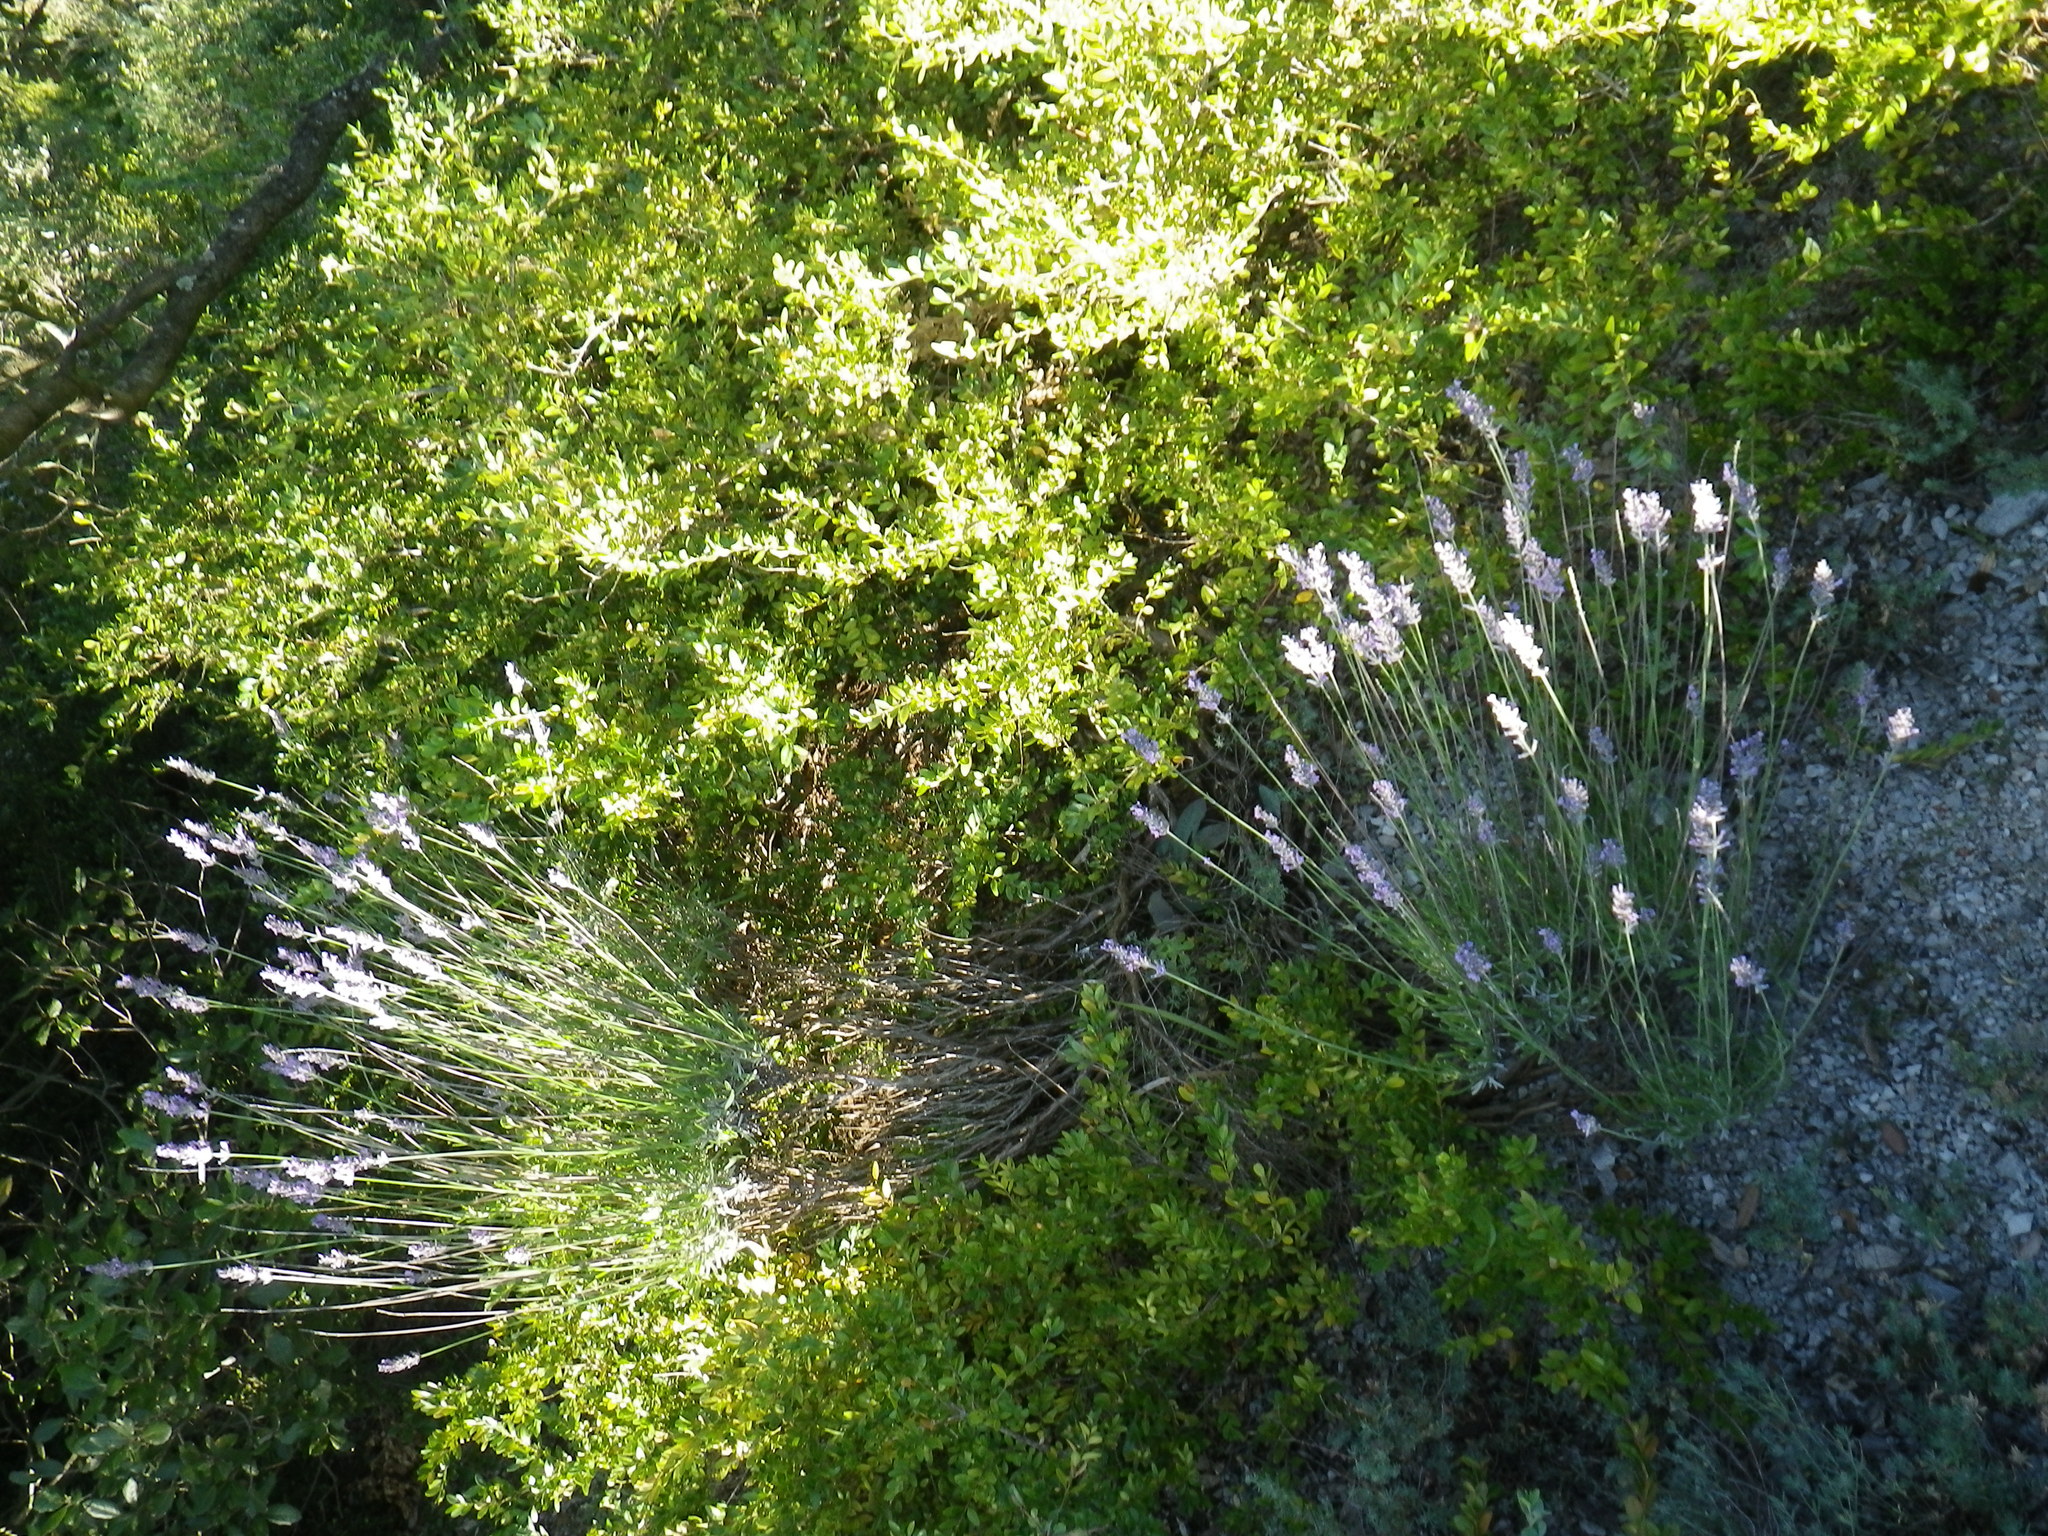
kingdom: Plantae
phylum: Tracheophyta
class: Magnoliopsida
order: Lamiales
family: Lamiaceae
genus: Lavandula
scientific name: Lavandula latifolia
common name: Spike lavendar
